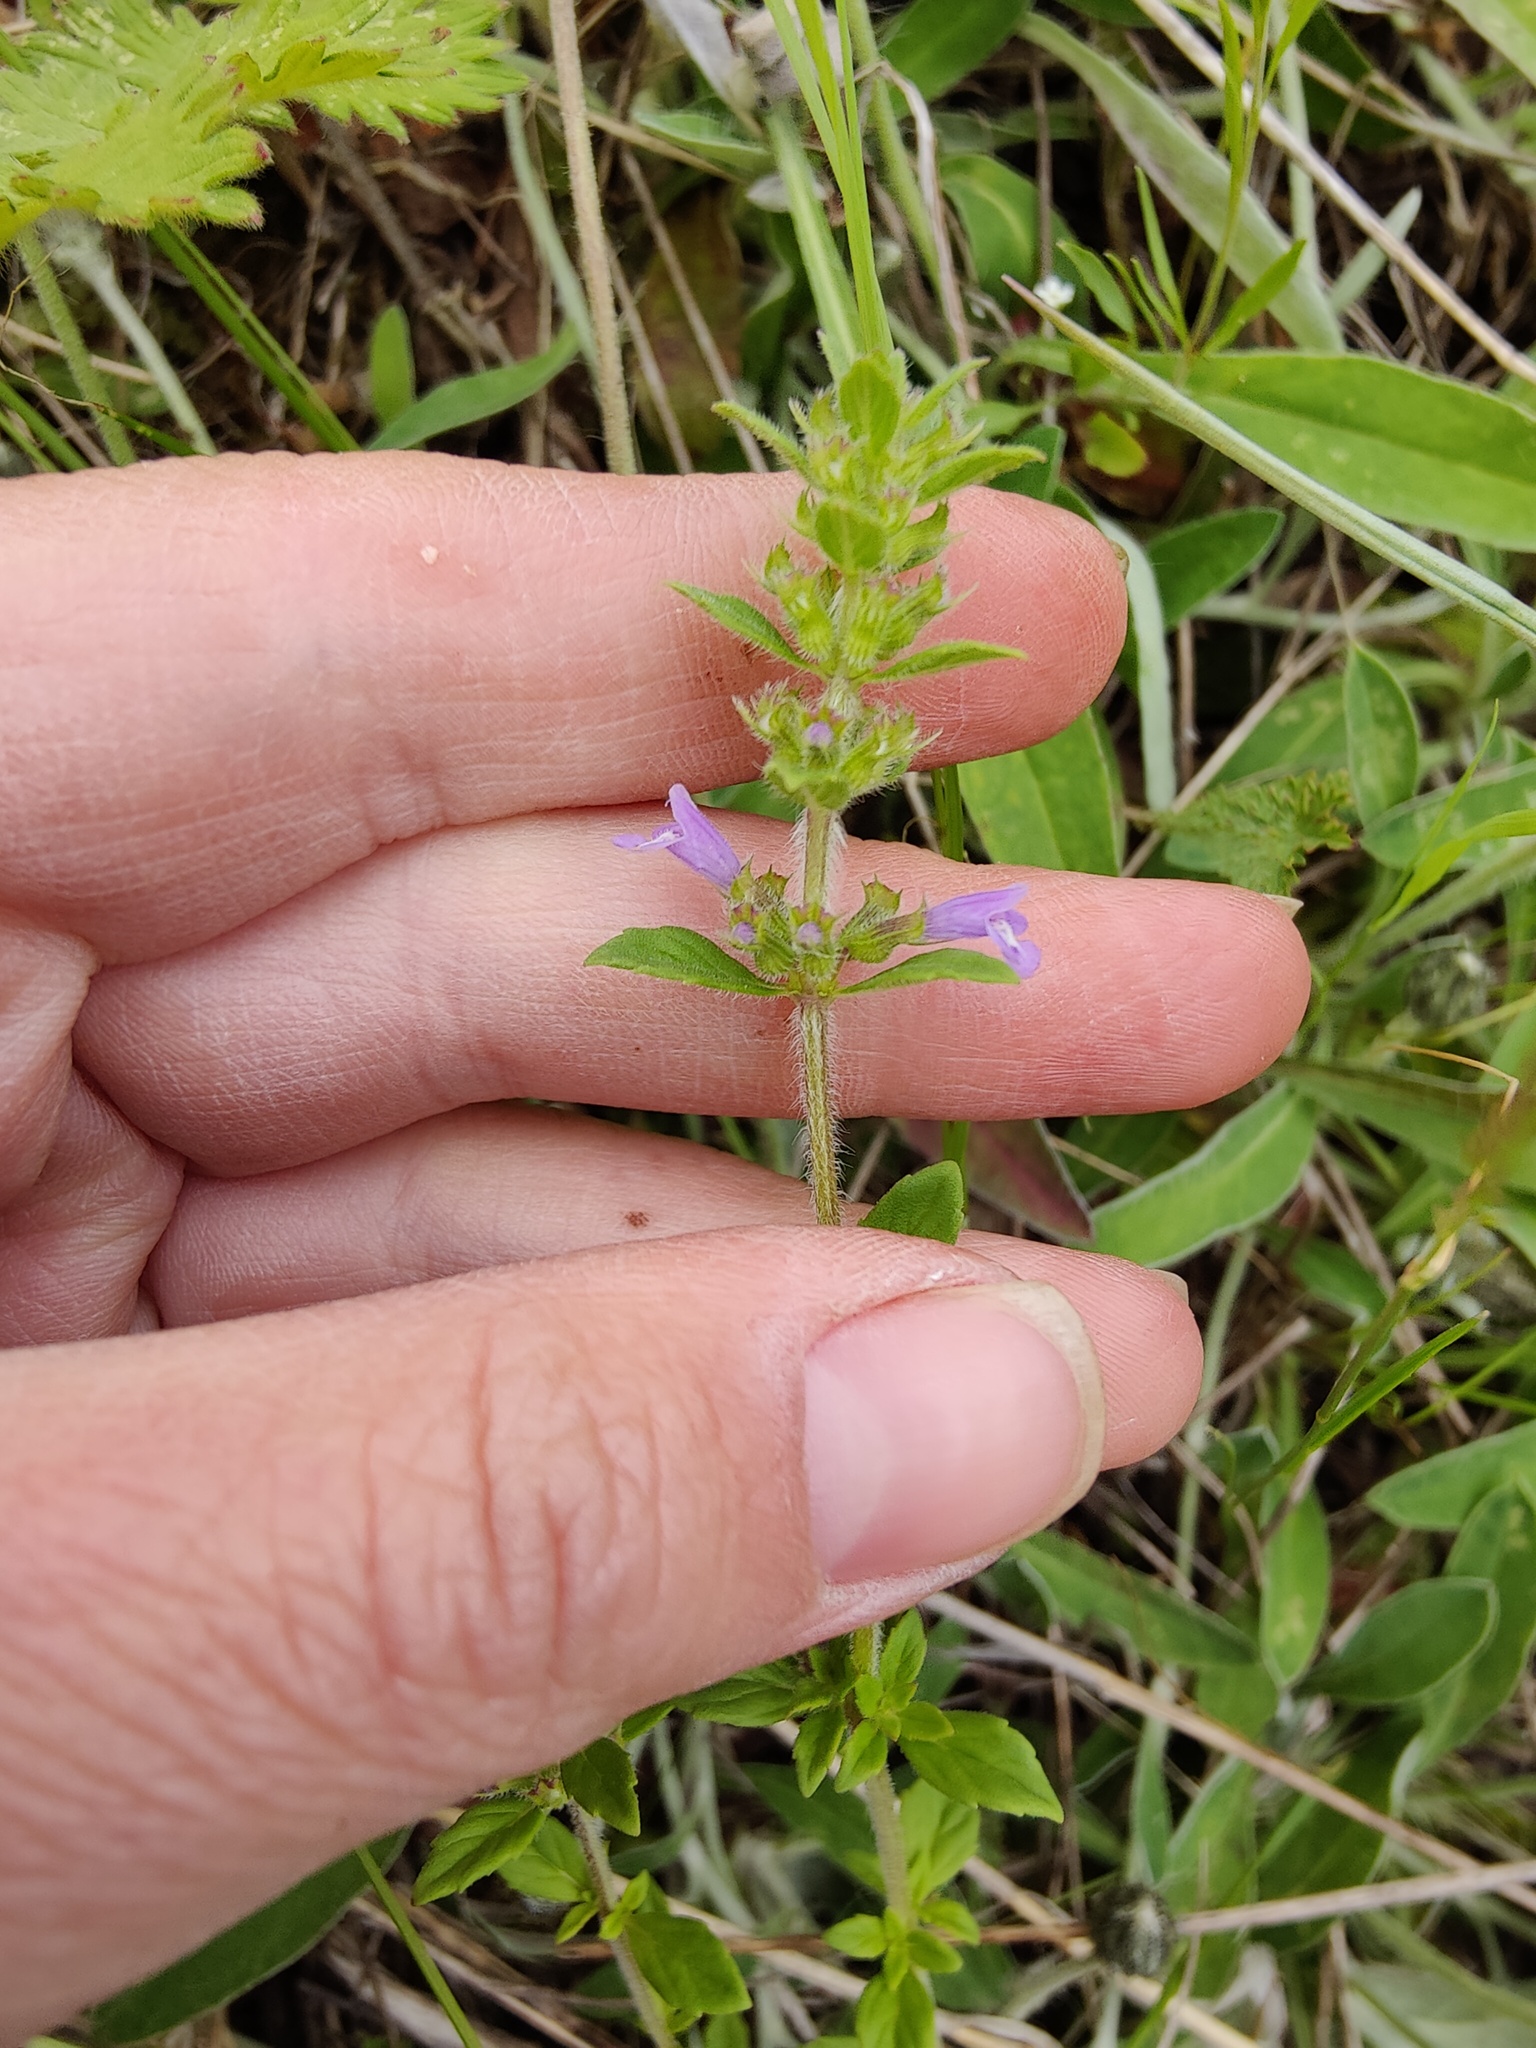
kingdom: Plantae
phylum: Tracheophyta
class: Magnoliopsida
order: Lamiales
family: Lamiaceae
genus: Clinopodium
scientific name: Clinopodium acinos
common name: Basil thyme
